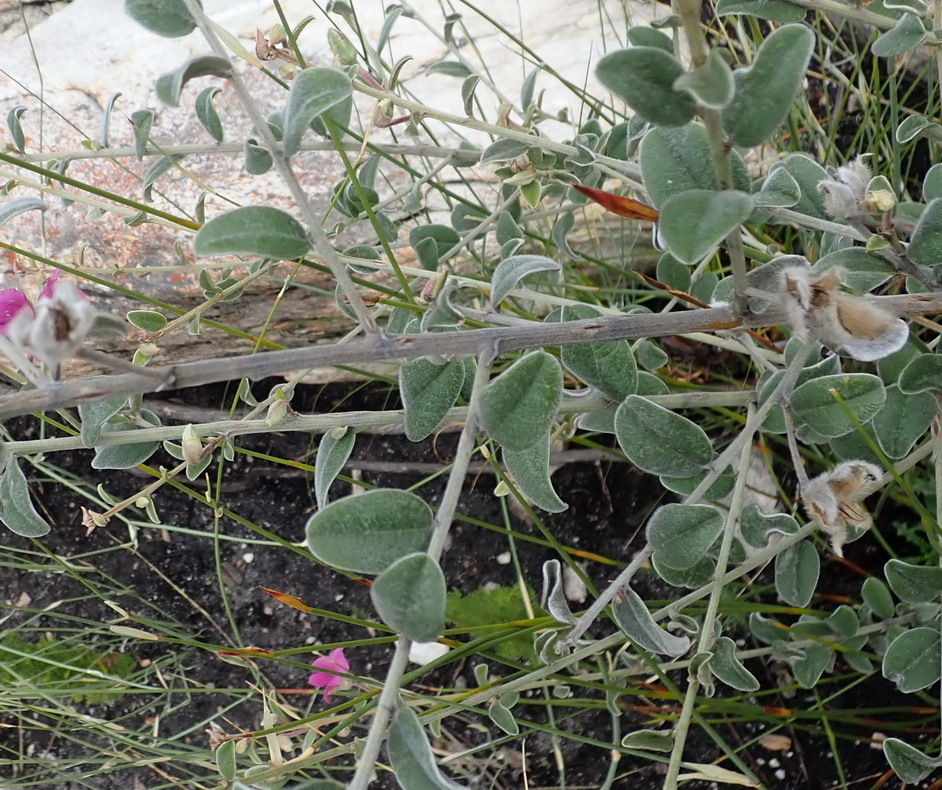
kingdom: Plantae
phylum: Tracheophyta
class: Magnoliopsida
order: Fabales
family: Fabaceae
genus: Podalyria
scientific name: Podalyria burchellii
